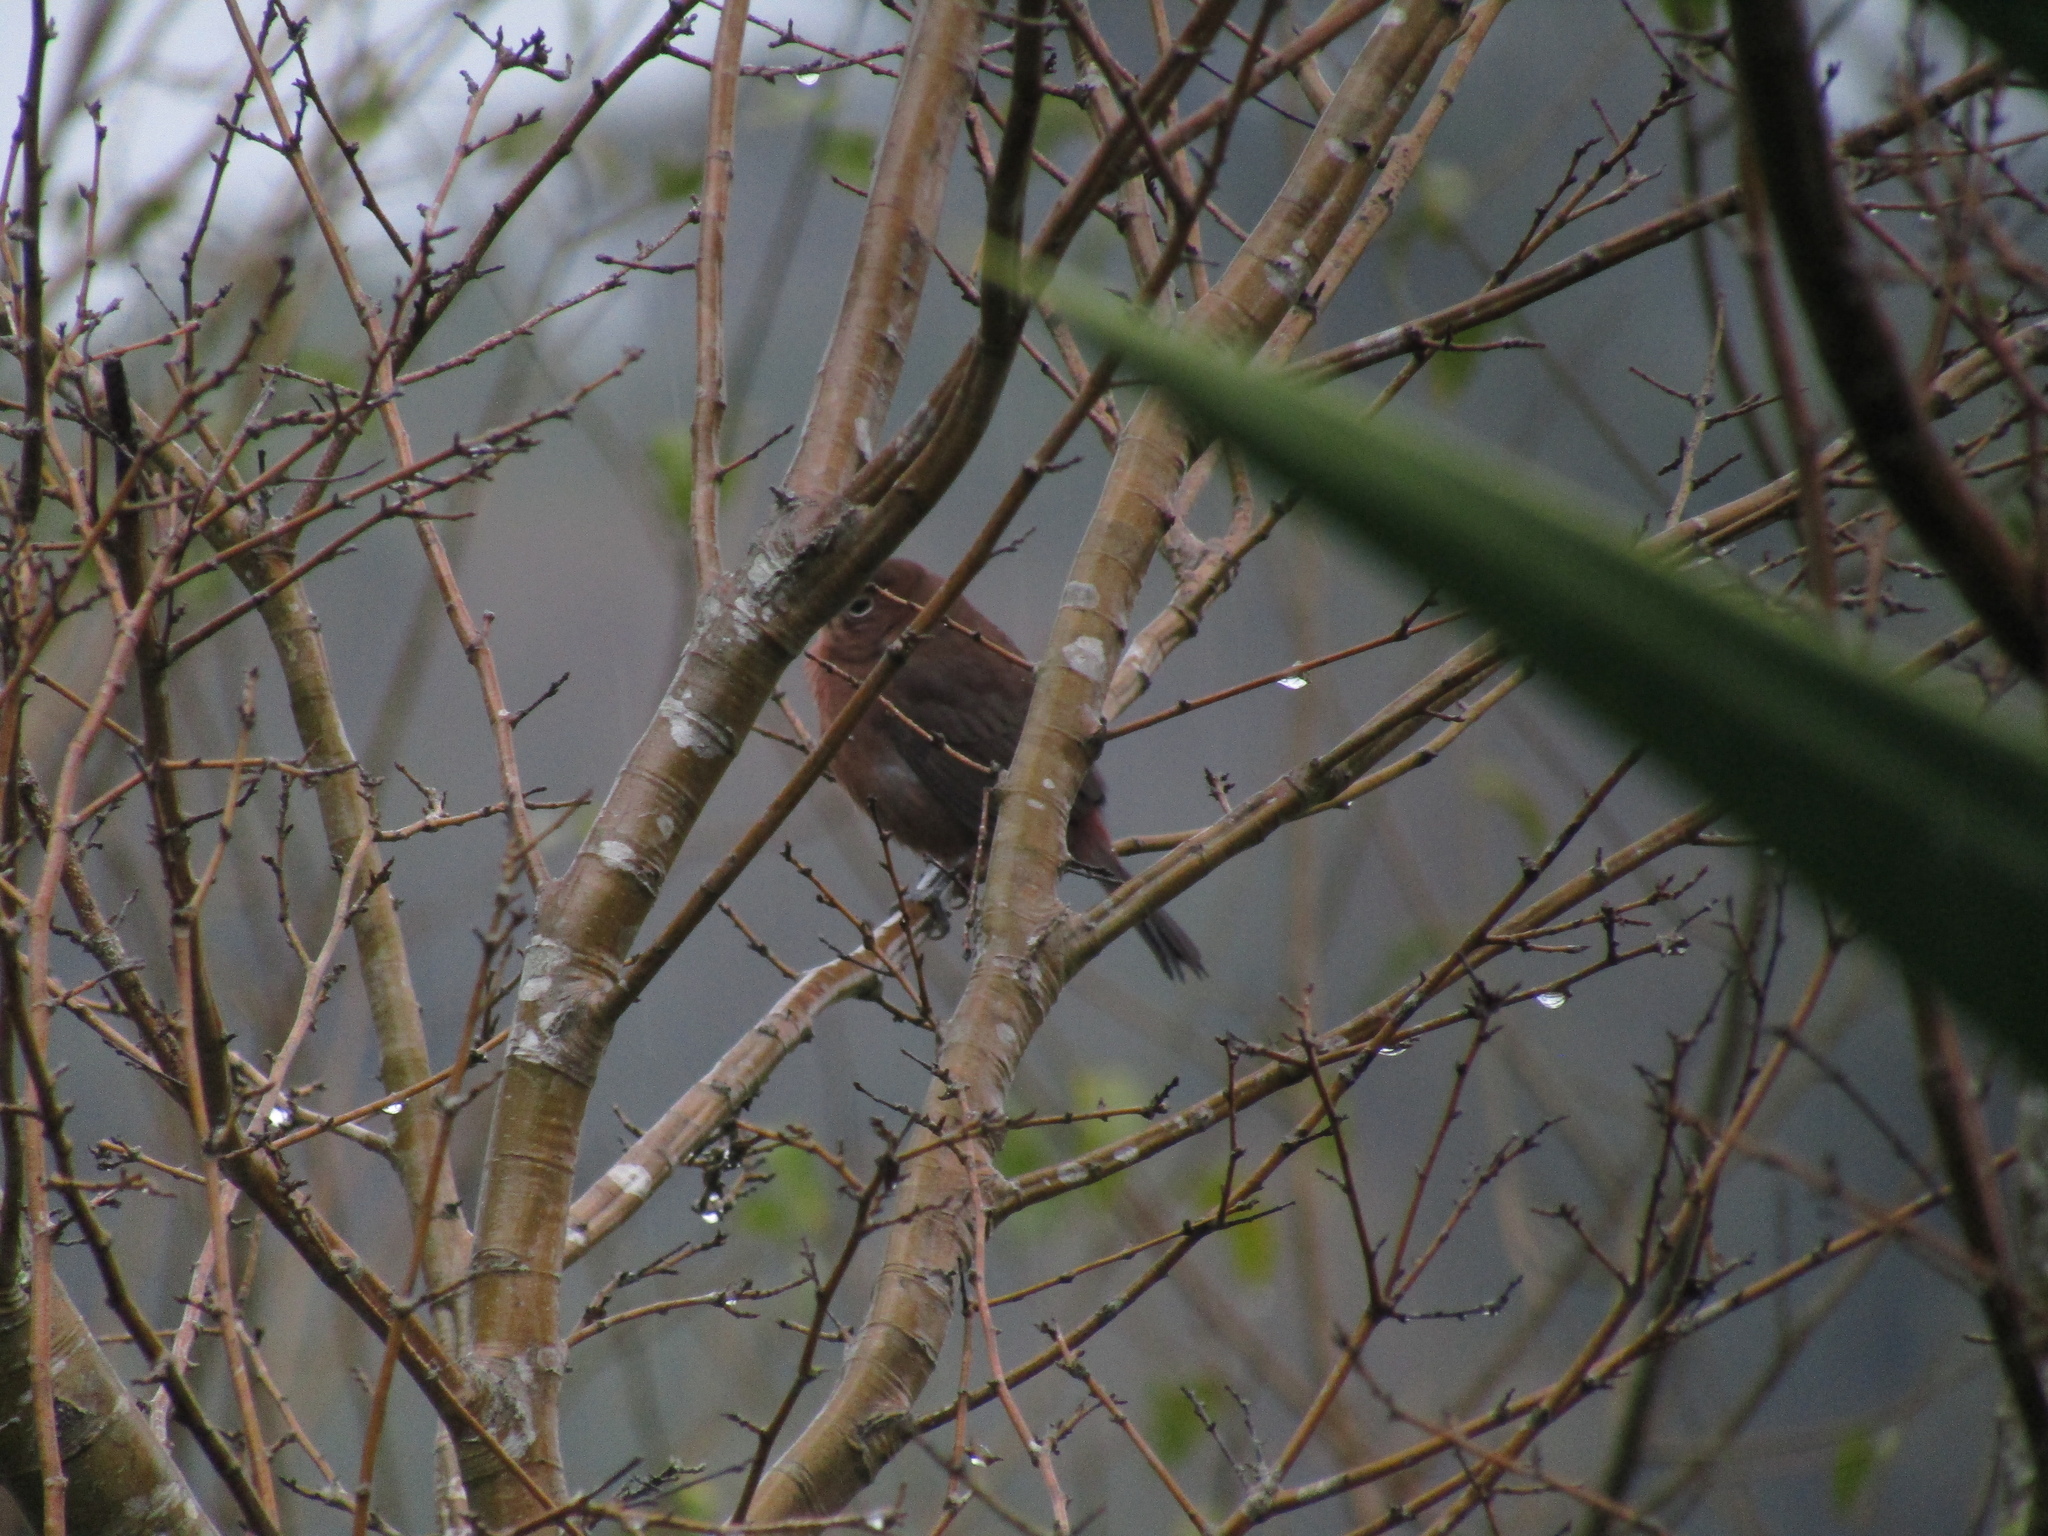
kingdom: Animalia
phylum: Chordata
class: Aves
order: Passeriformes
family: Thraupidae
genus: Coryphospingus
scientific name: Coryphospingus cucullatus
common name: Red pileated finch
